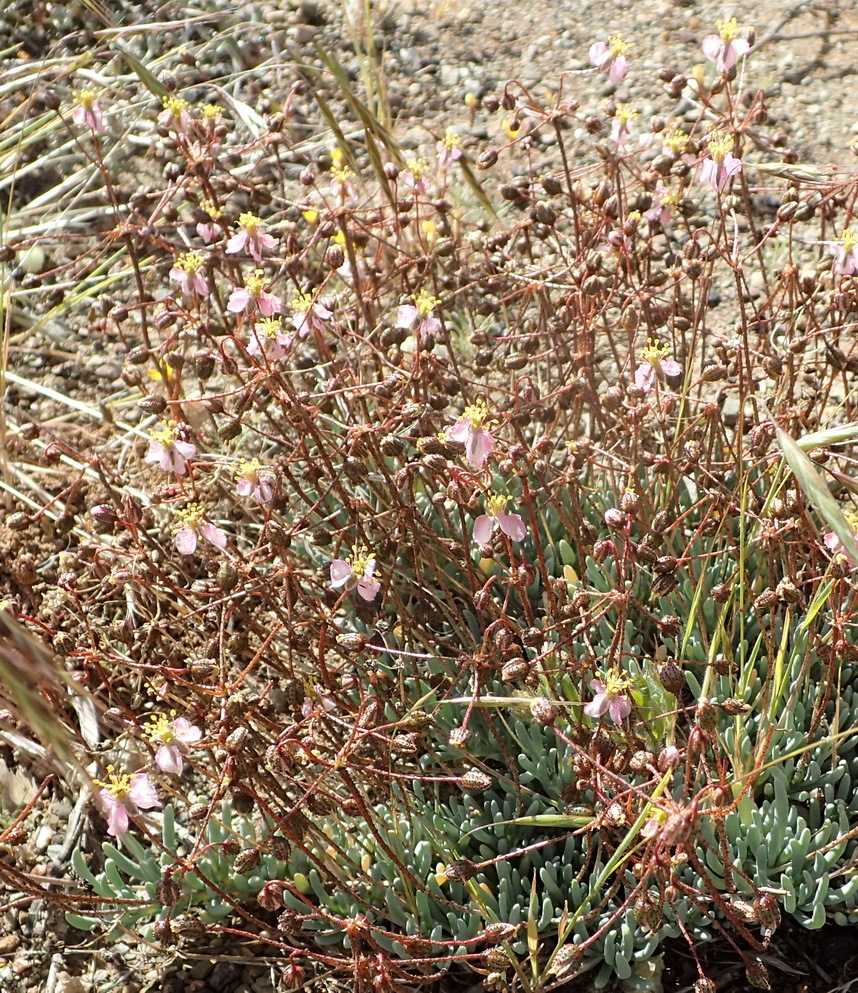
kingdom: Plantae
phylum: Tracheophyta
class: Magnoliopsida
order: Caryophyllales
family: Kewaceae
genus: Kewa
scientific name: Kewa salsoloides
